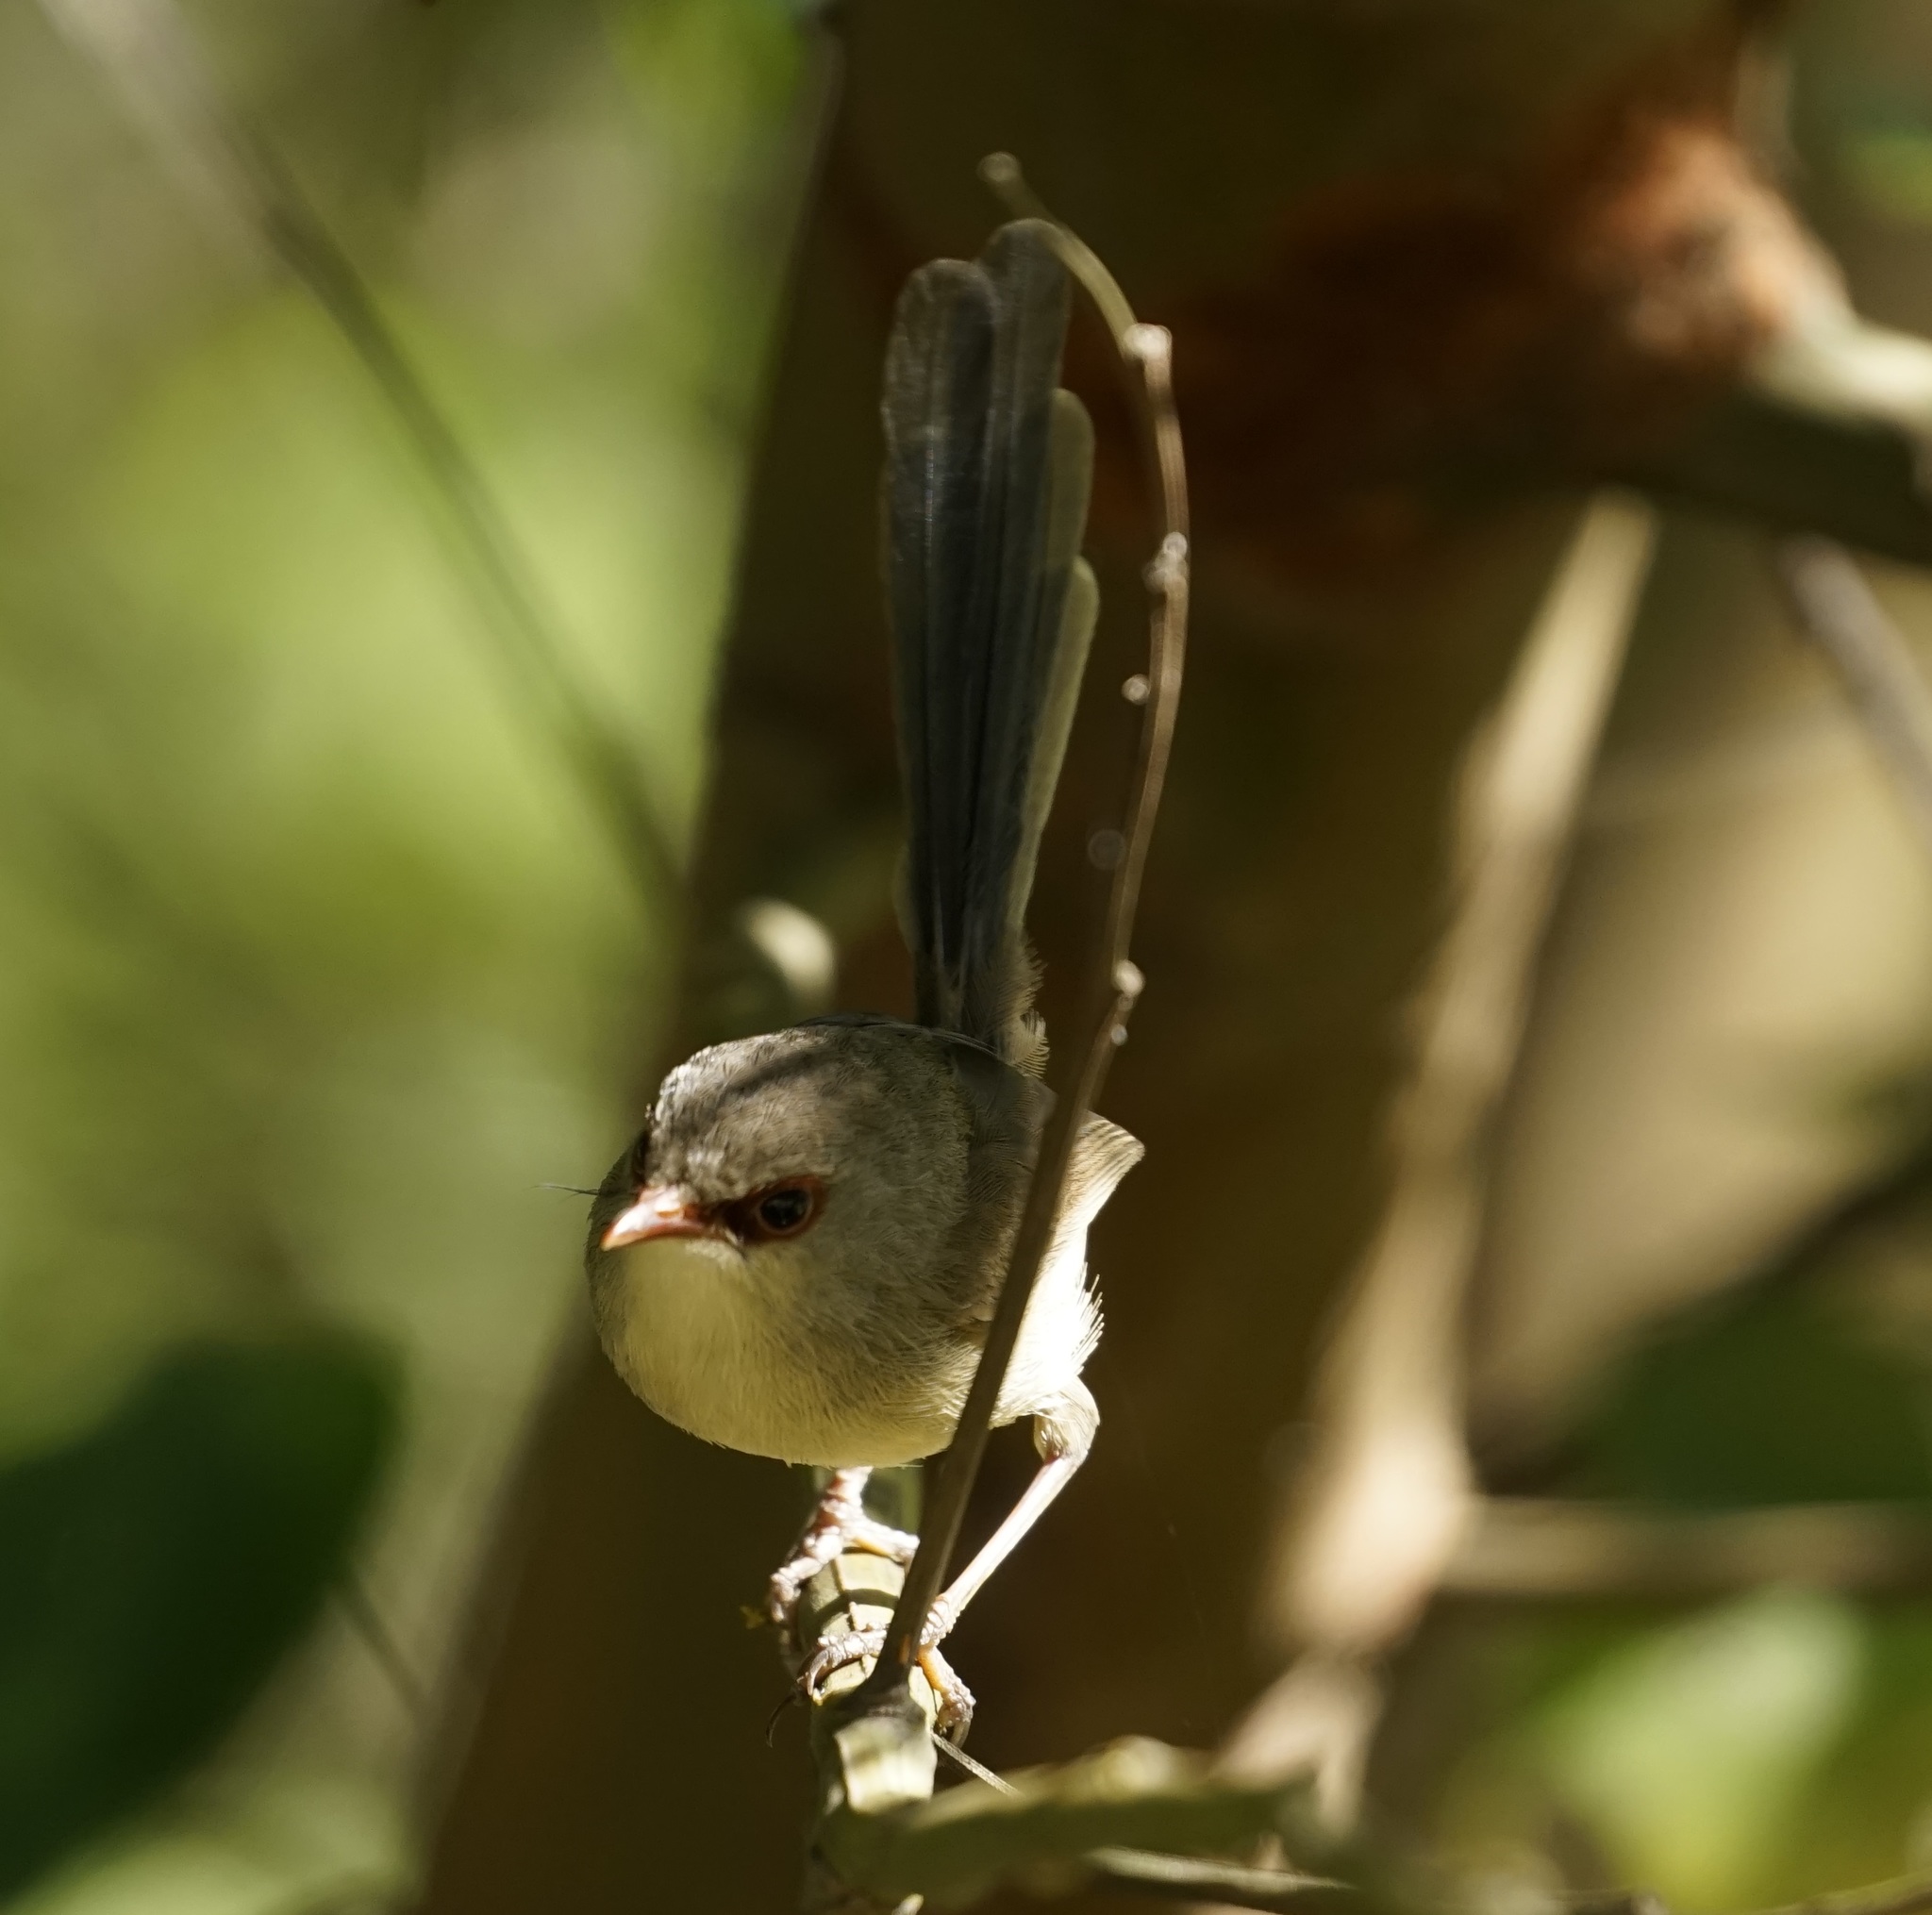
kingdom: Animalia
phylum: Chordata
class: Aves
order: Passeriformes
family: Maluridae
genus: Malurus
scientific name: Malurus lamberti
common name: Variegated fairywren
